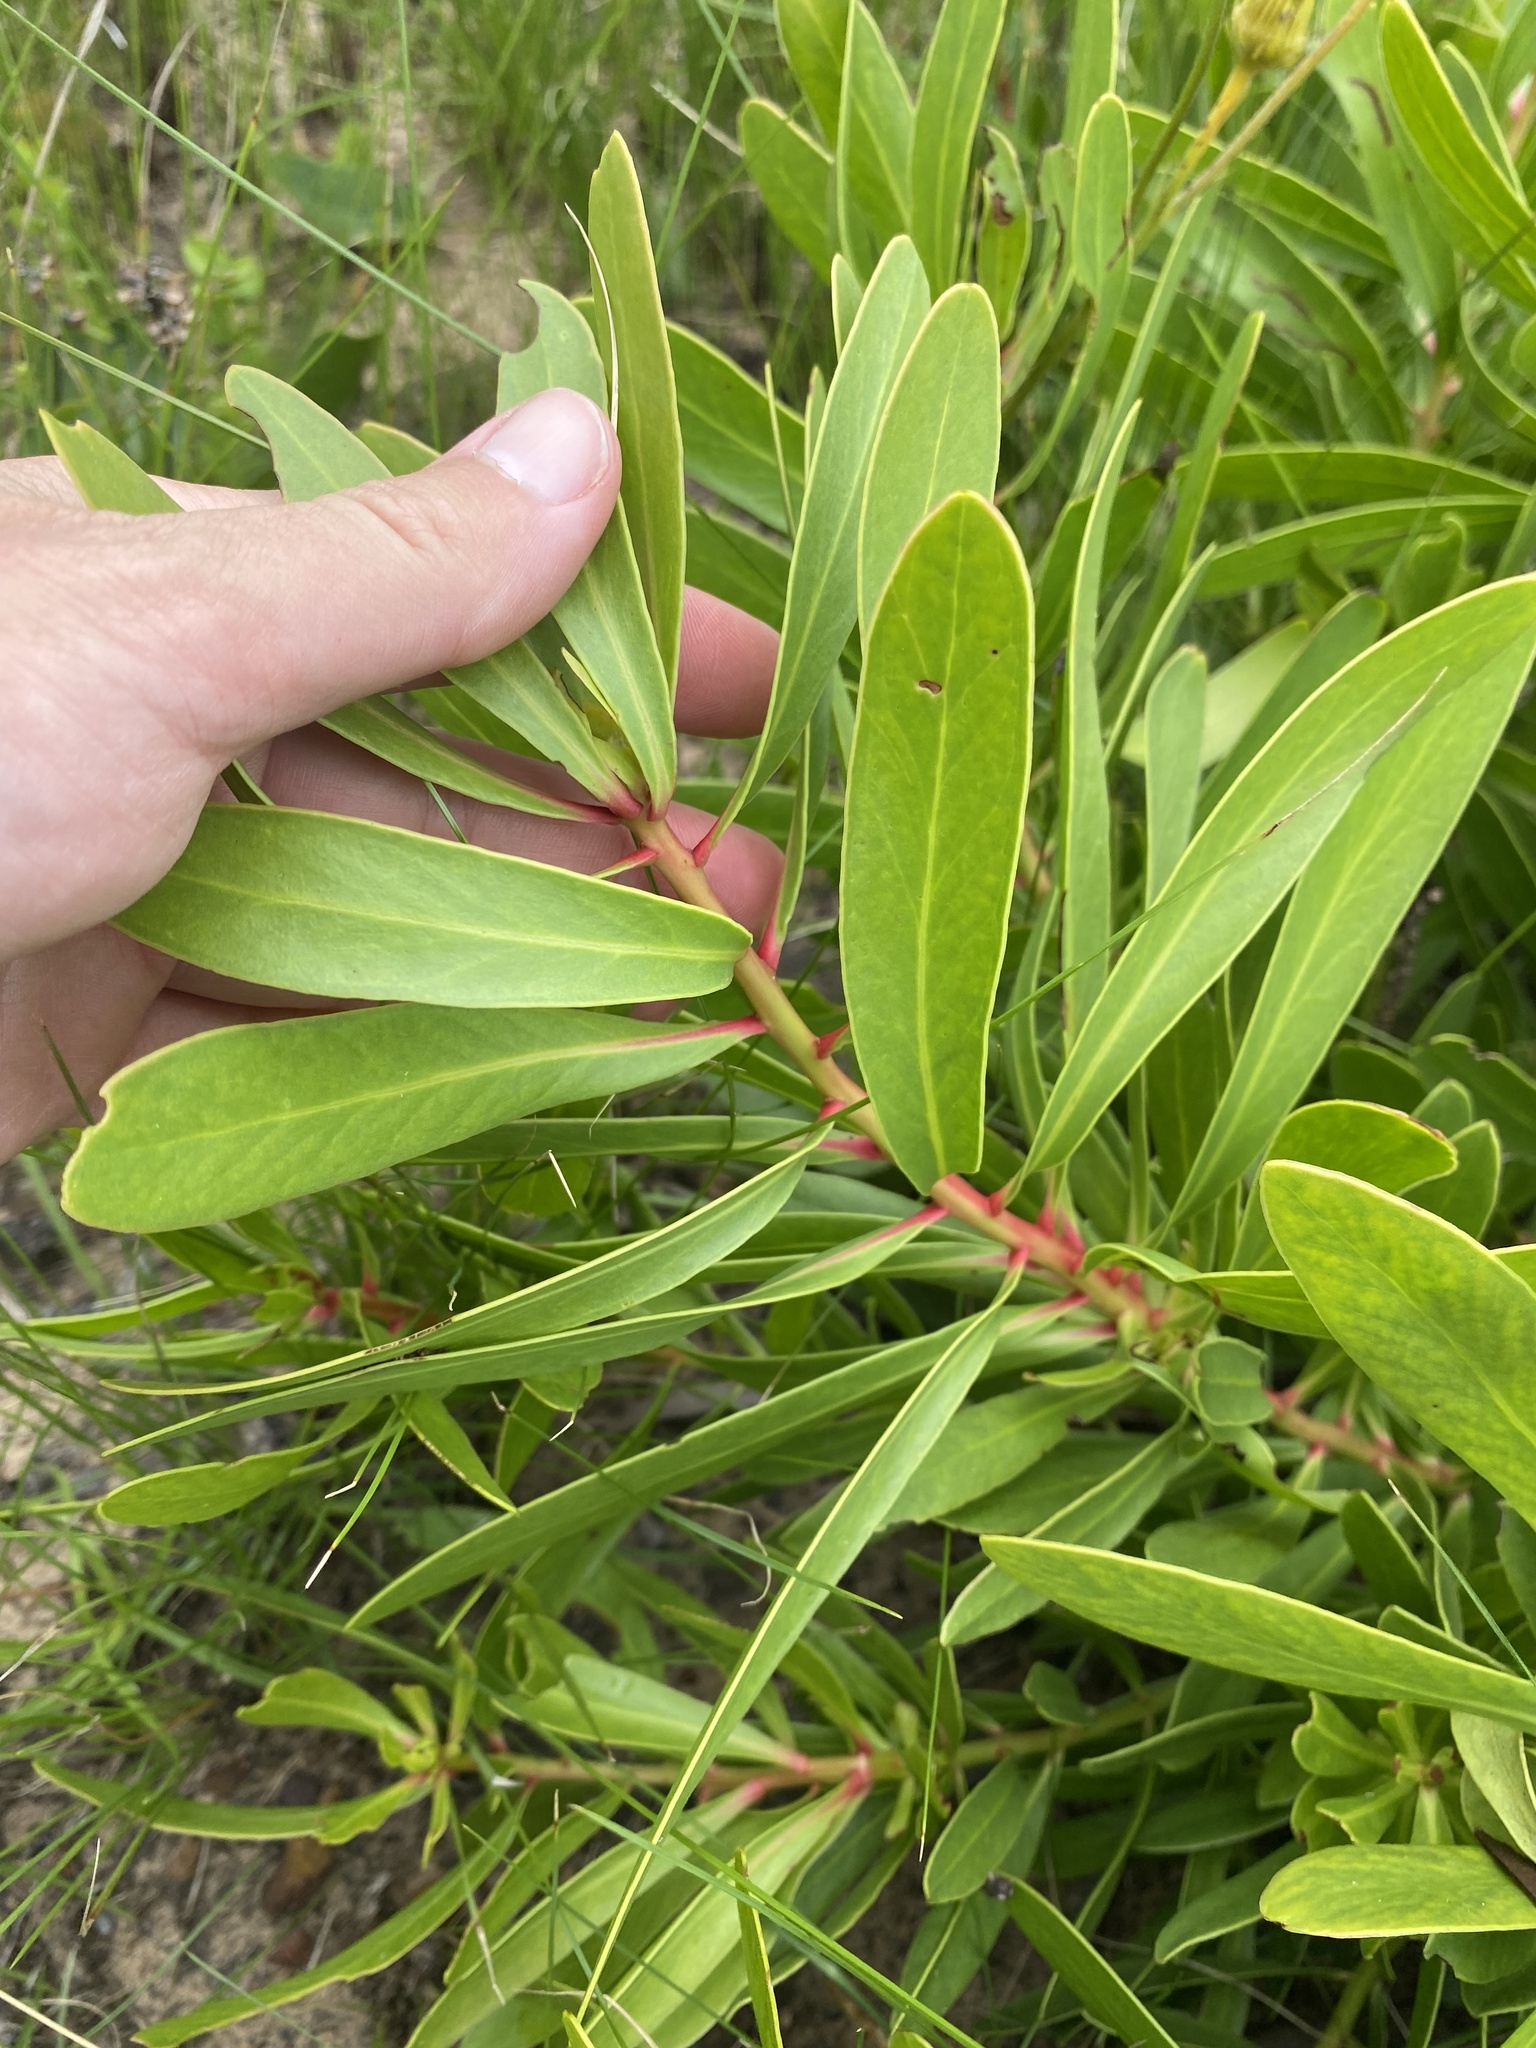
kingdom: Plantae
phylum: Tracheophyta
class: Magnoliopsida
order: Proteales
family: Proteaceae
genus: Protea
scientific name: Protea simplex
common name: Dwarf grassveld sugarbush
